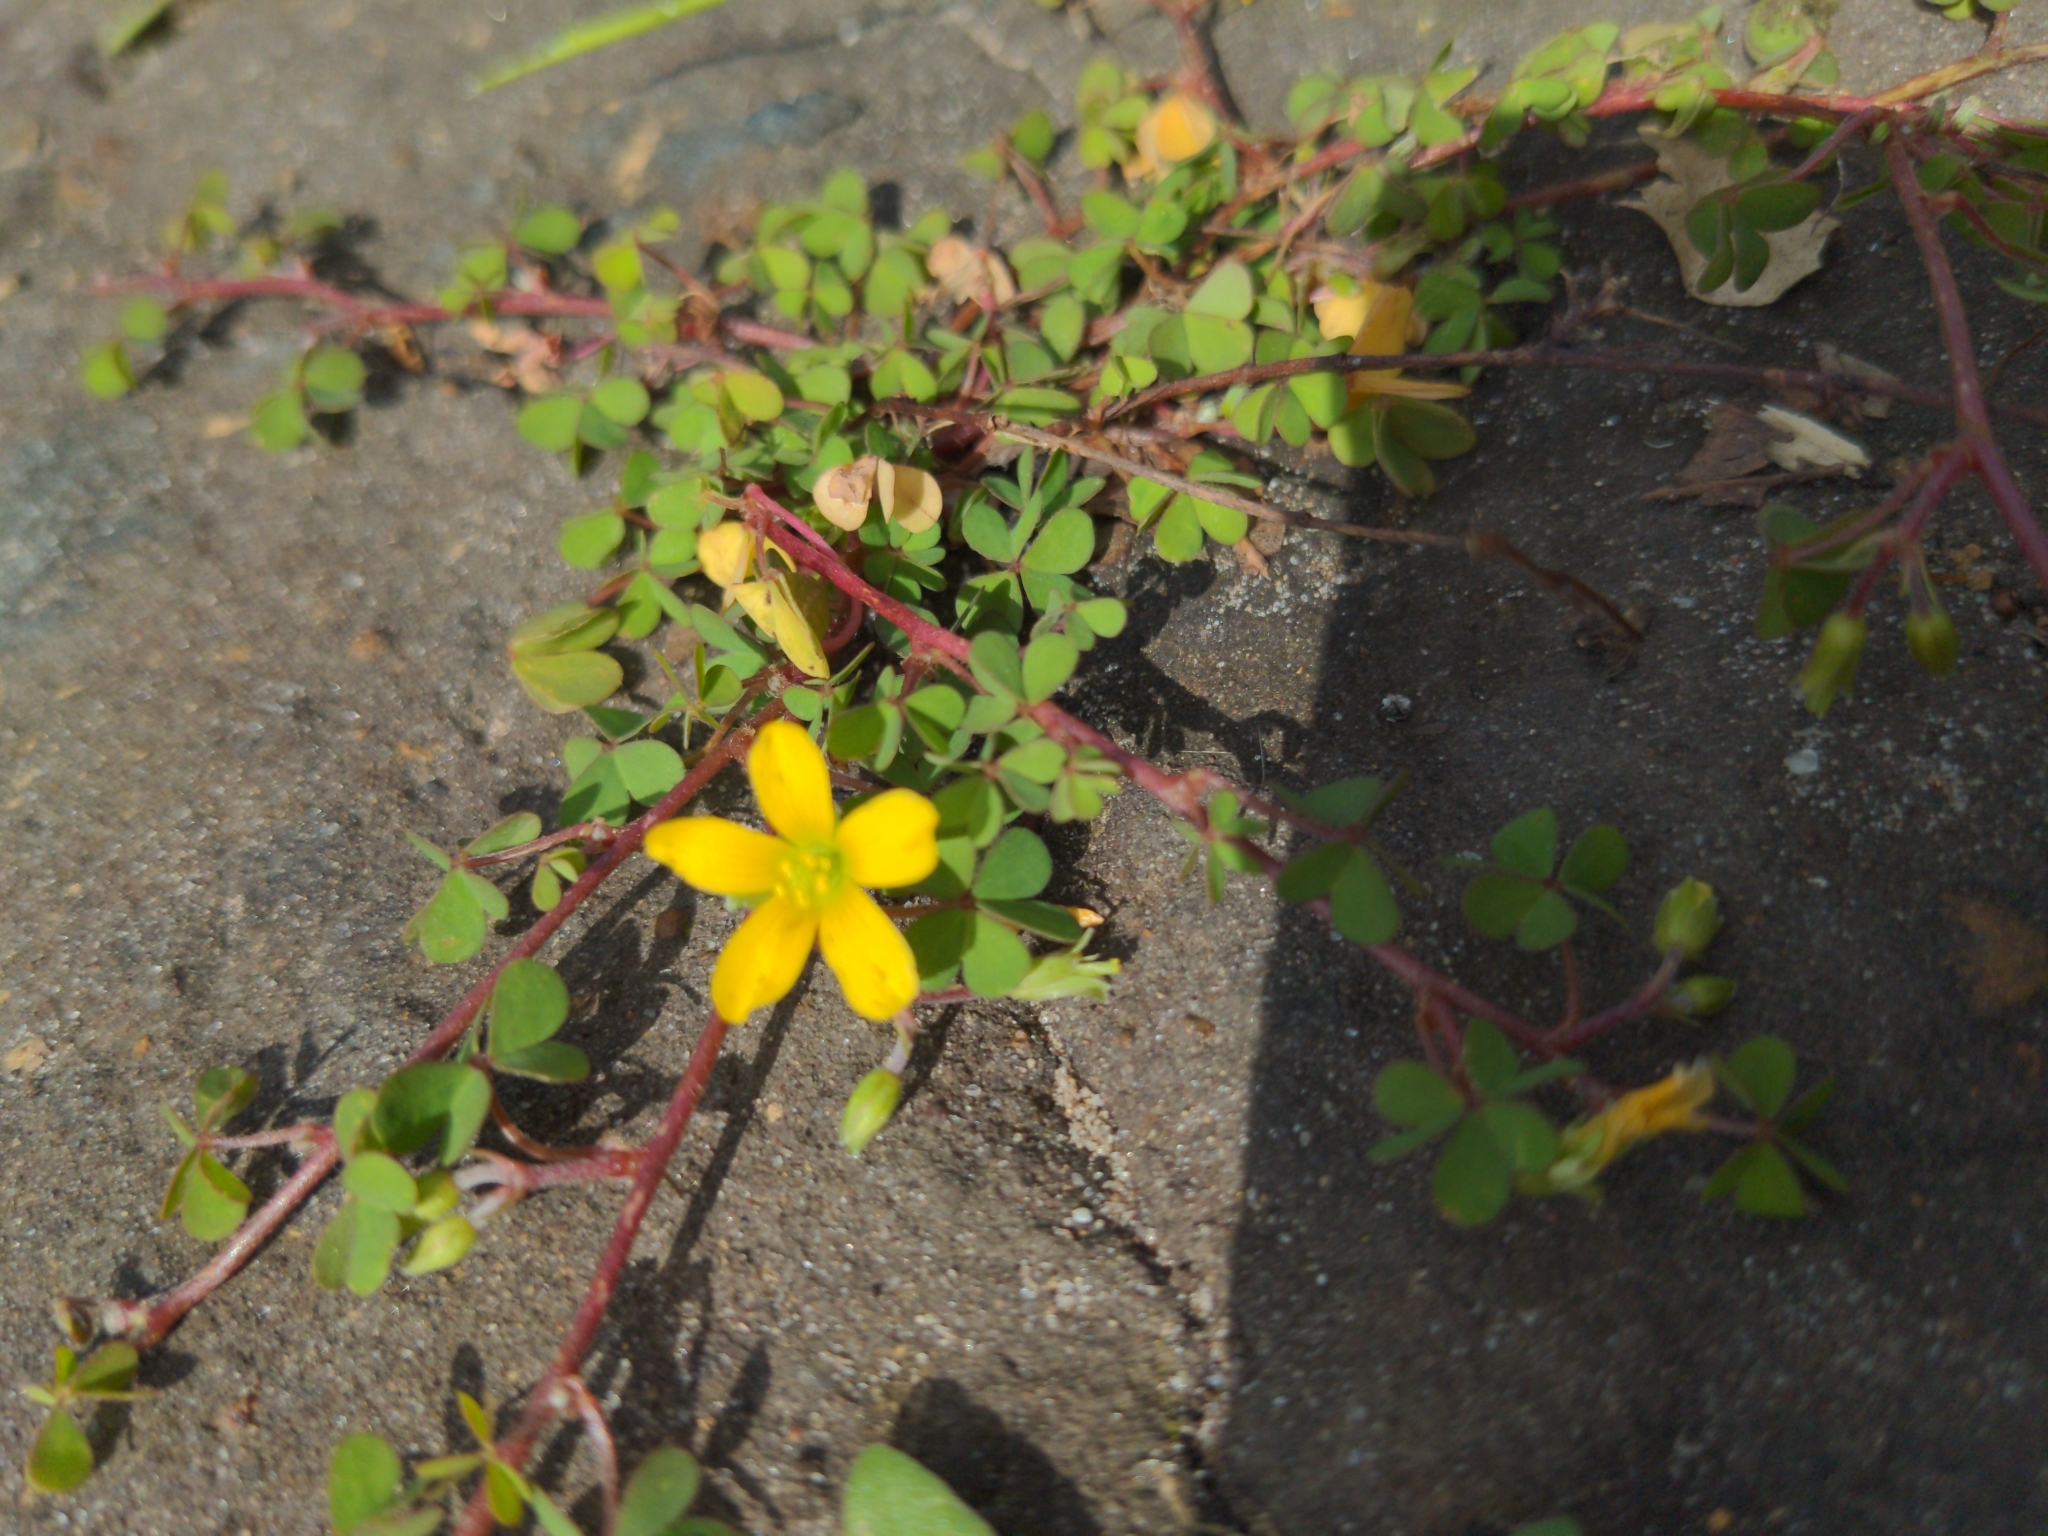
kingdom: Plantae
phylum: Tracheophyta
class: Magnoliopsida
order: Oxalidales
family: Oxalidaceae
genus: Oxalis
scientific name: Oxalis corniculata
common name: Procumbent yellow-sorrel
